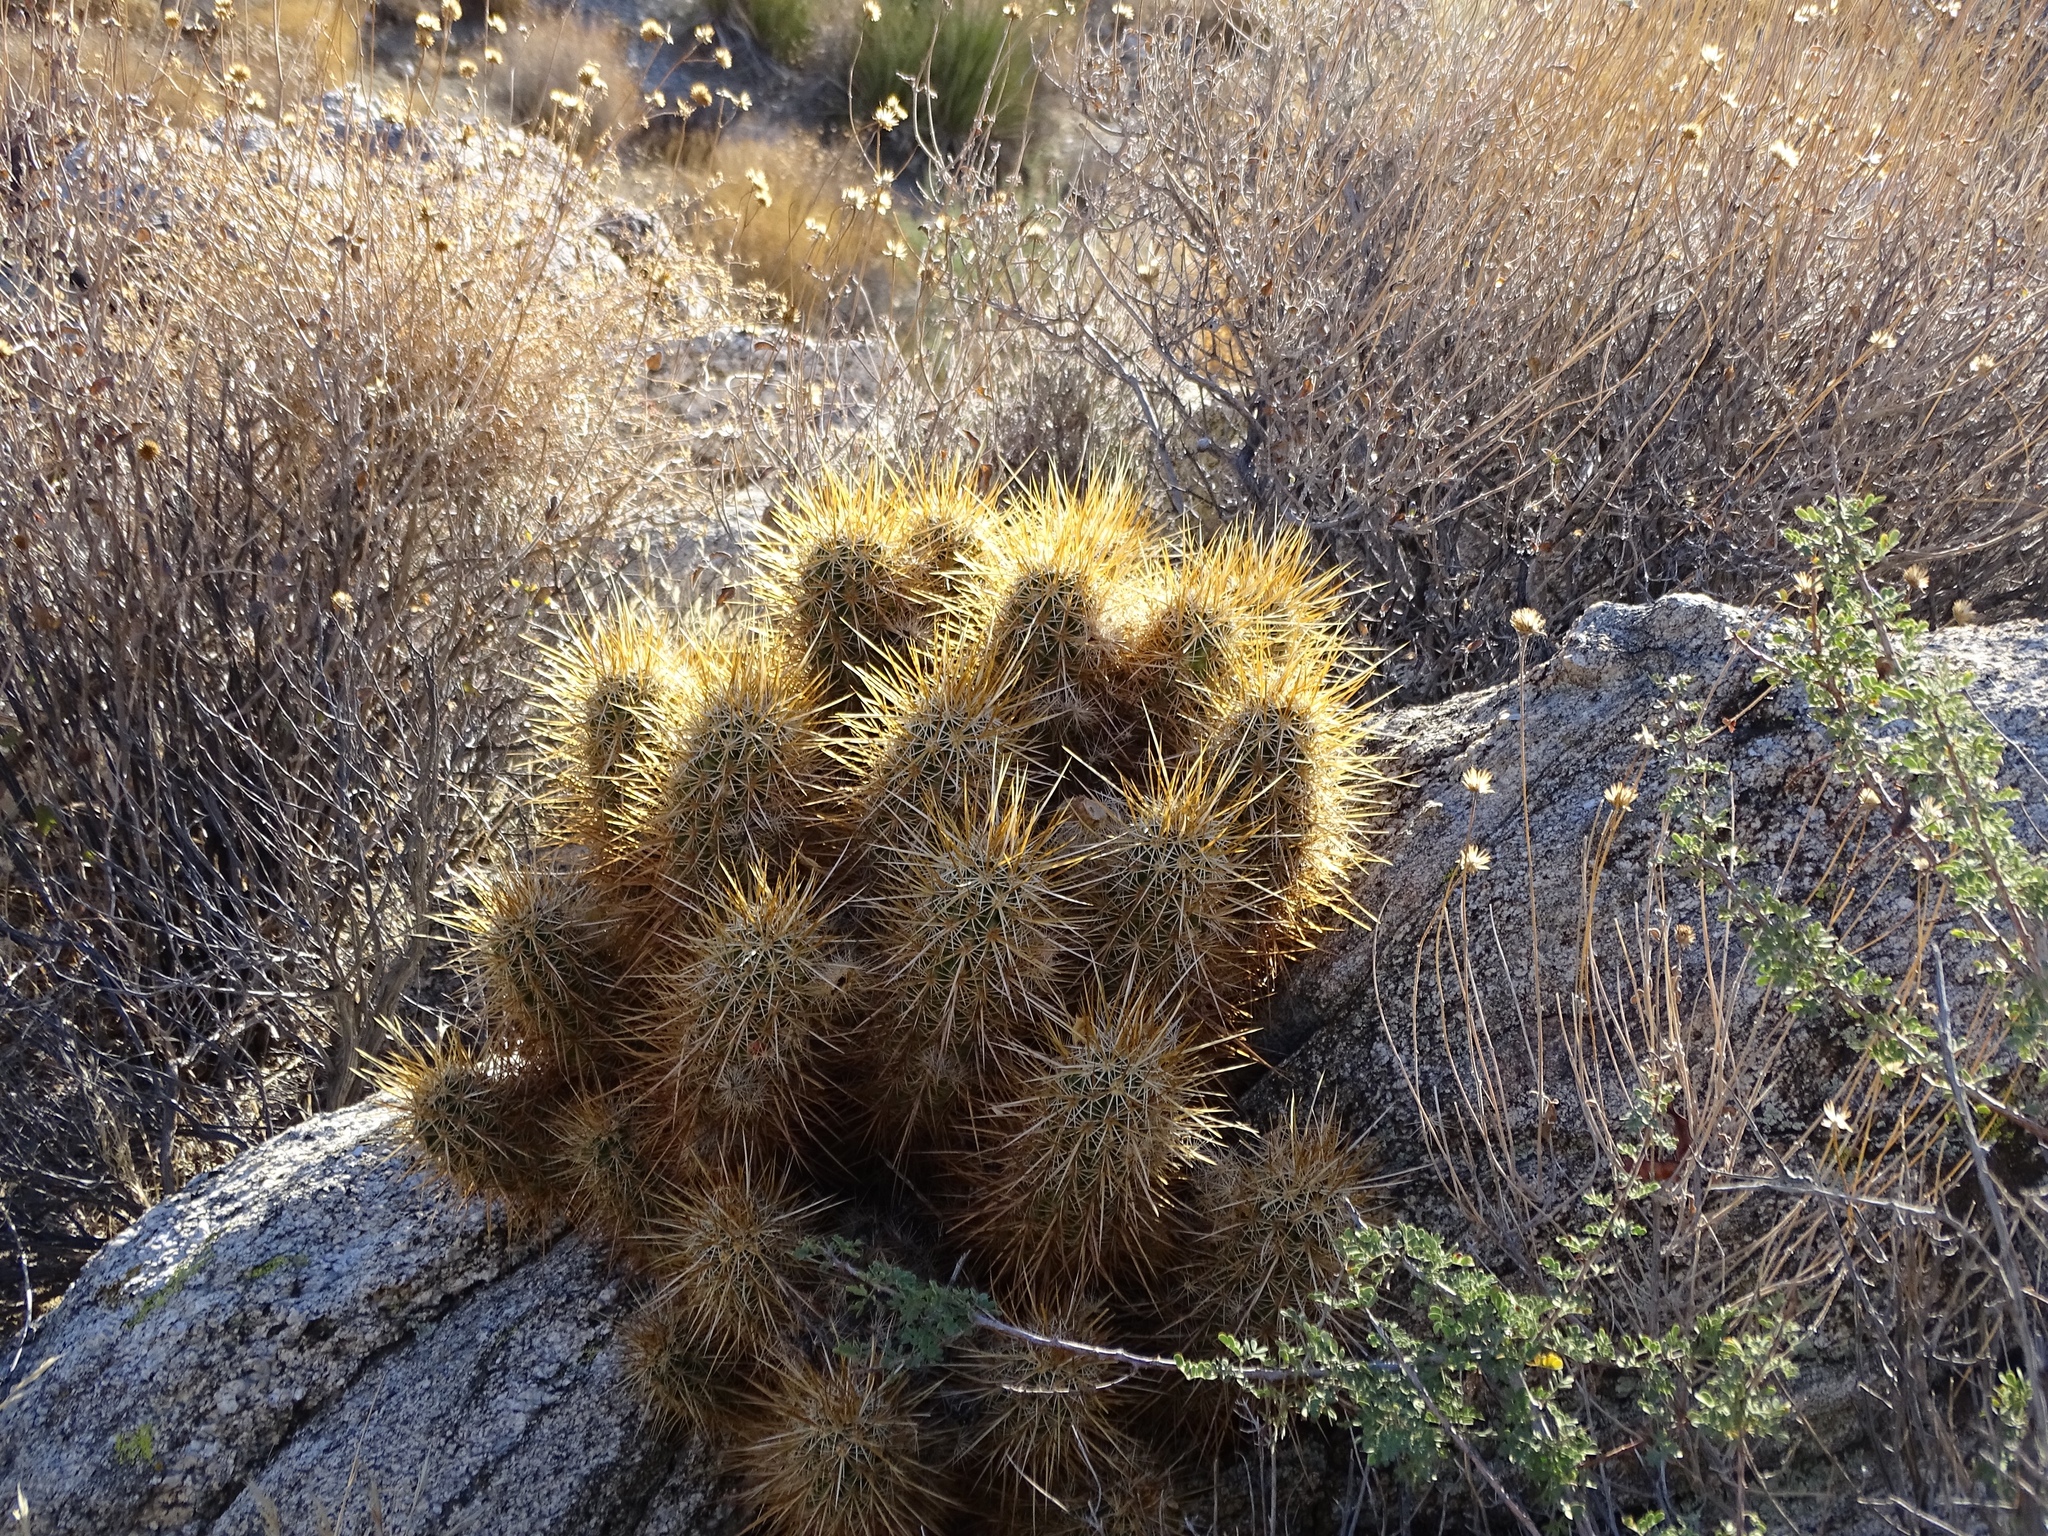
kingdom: Plantae
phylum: Tracheophyta
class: Magnoliopsida
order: Caryophyllales
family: Cactaceae
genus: Echinocereus
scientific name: Echinocereus engelmannii
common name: Engelmann's hedgehog cactus
